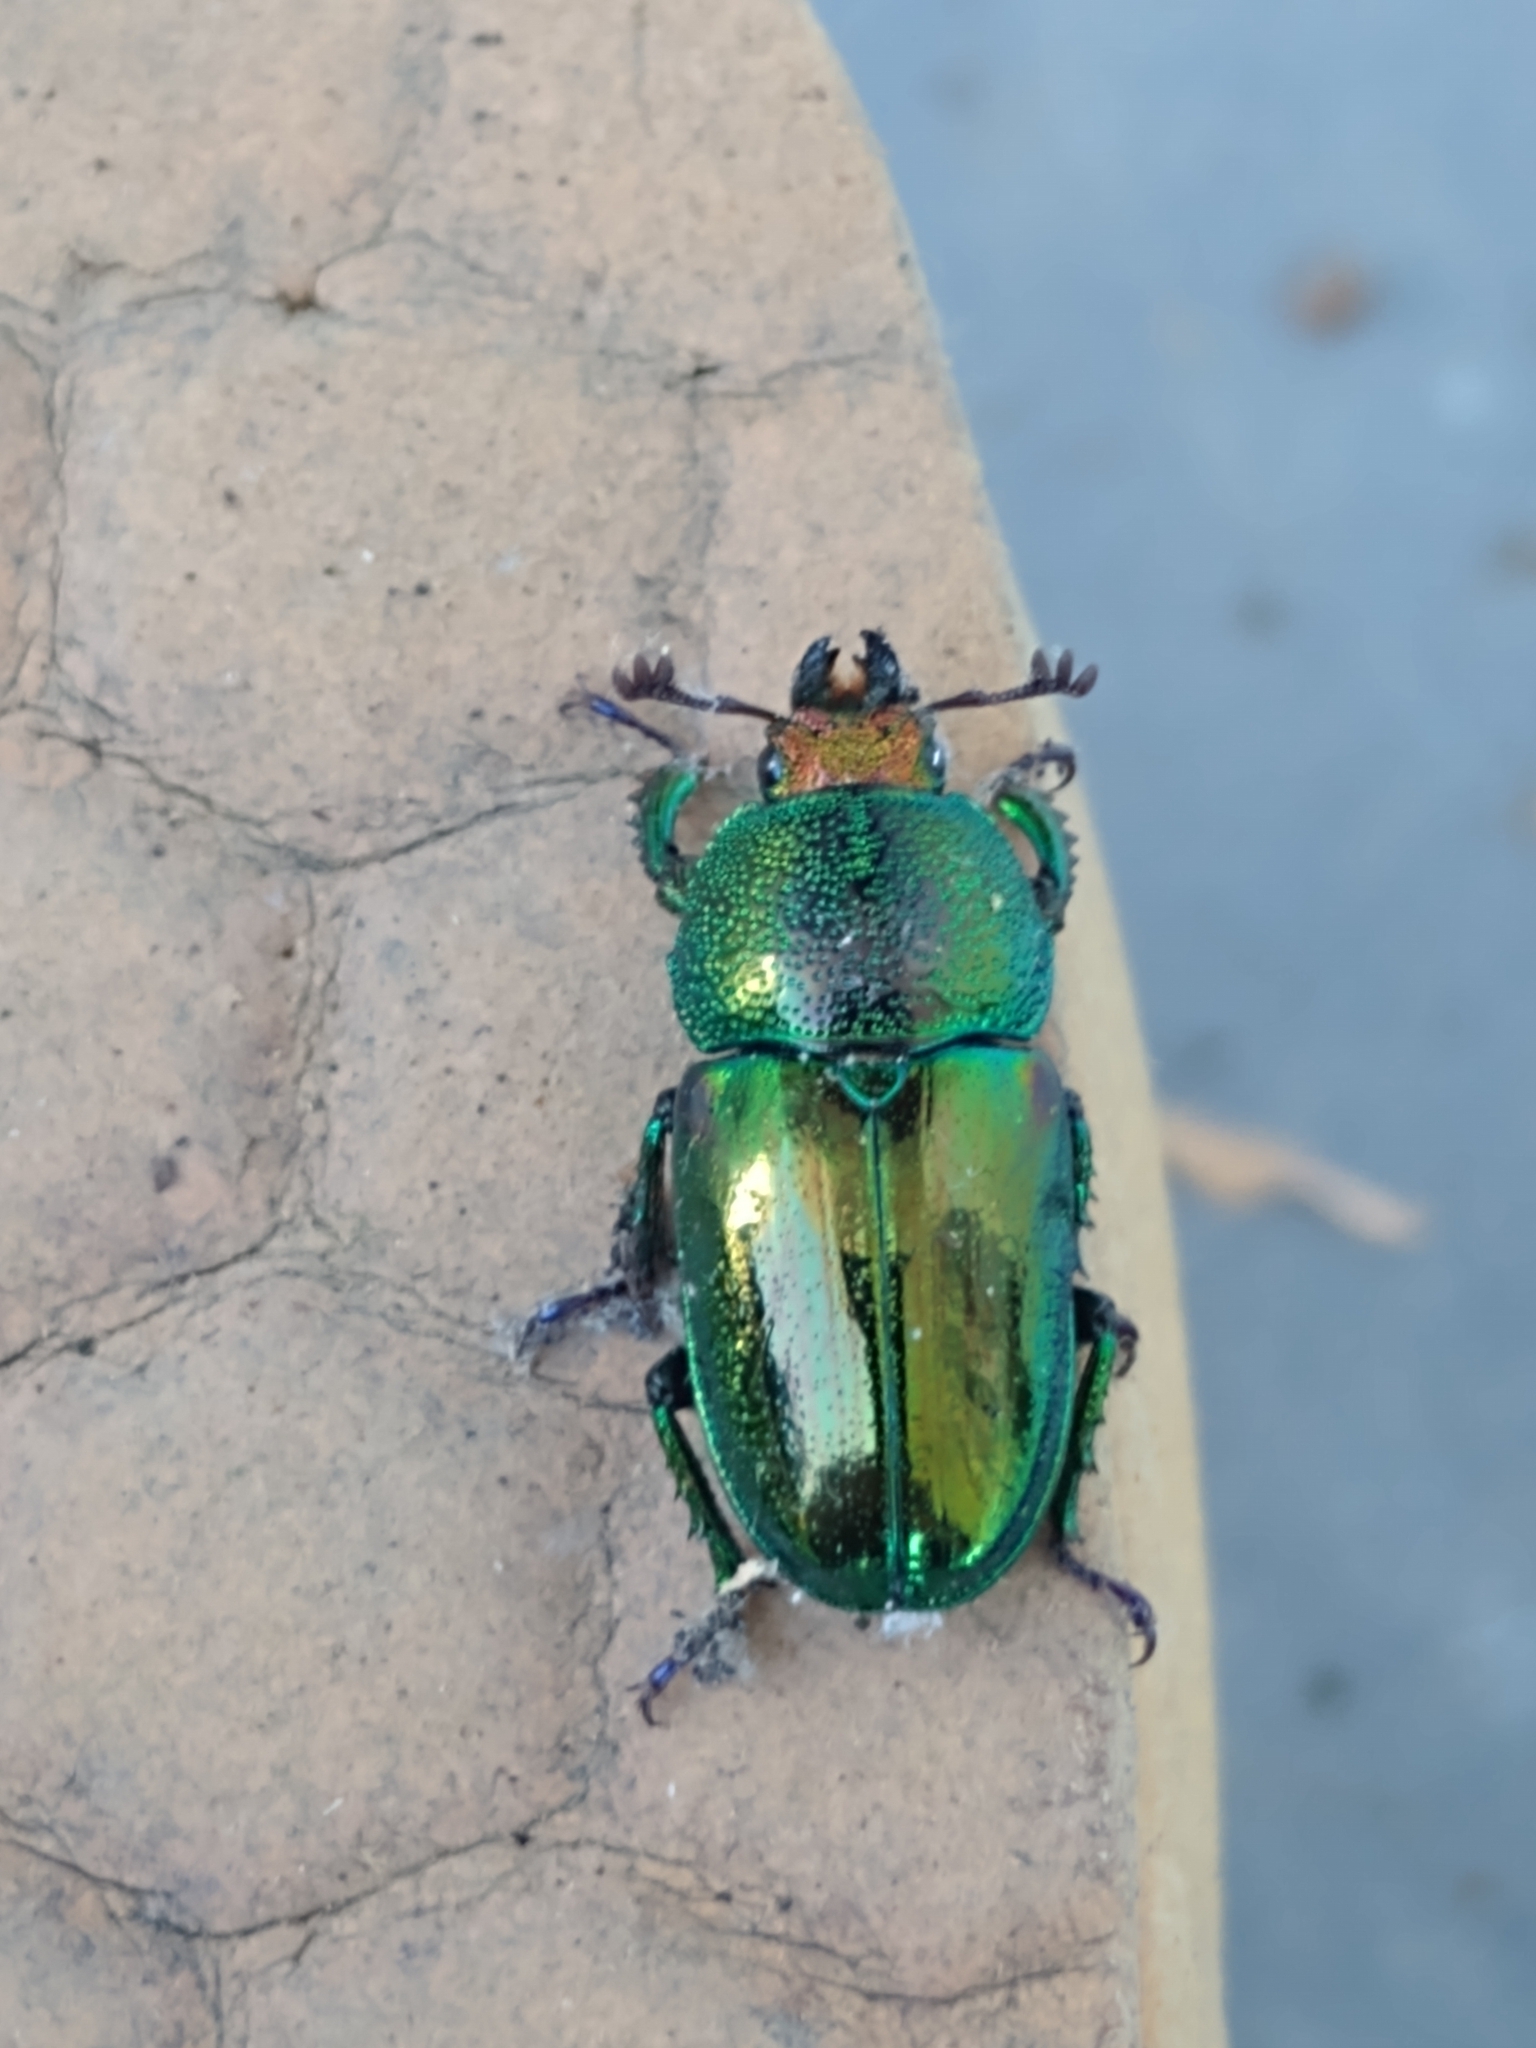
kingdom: Animalia
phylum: Arthropoda
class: Insecta
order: Coleoptera
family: Lucanidae
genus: Lamprima
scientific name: Lamprima aurata
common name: Golden stag beetle
